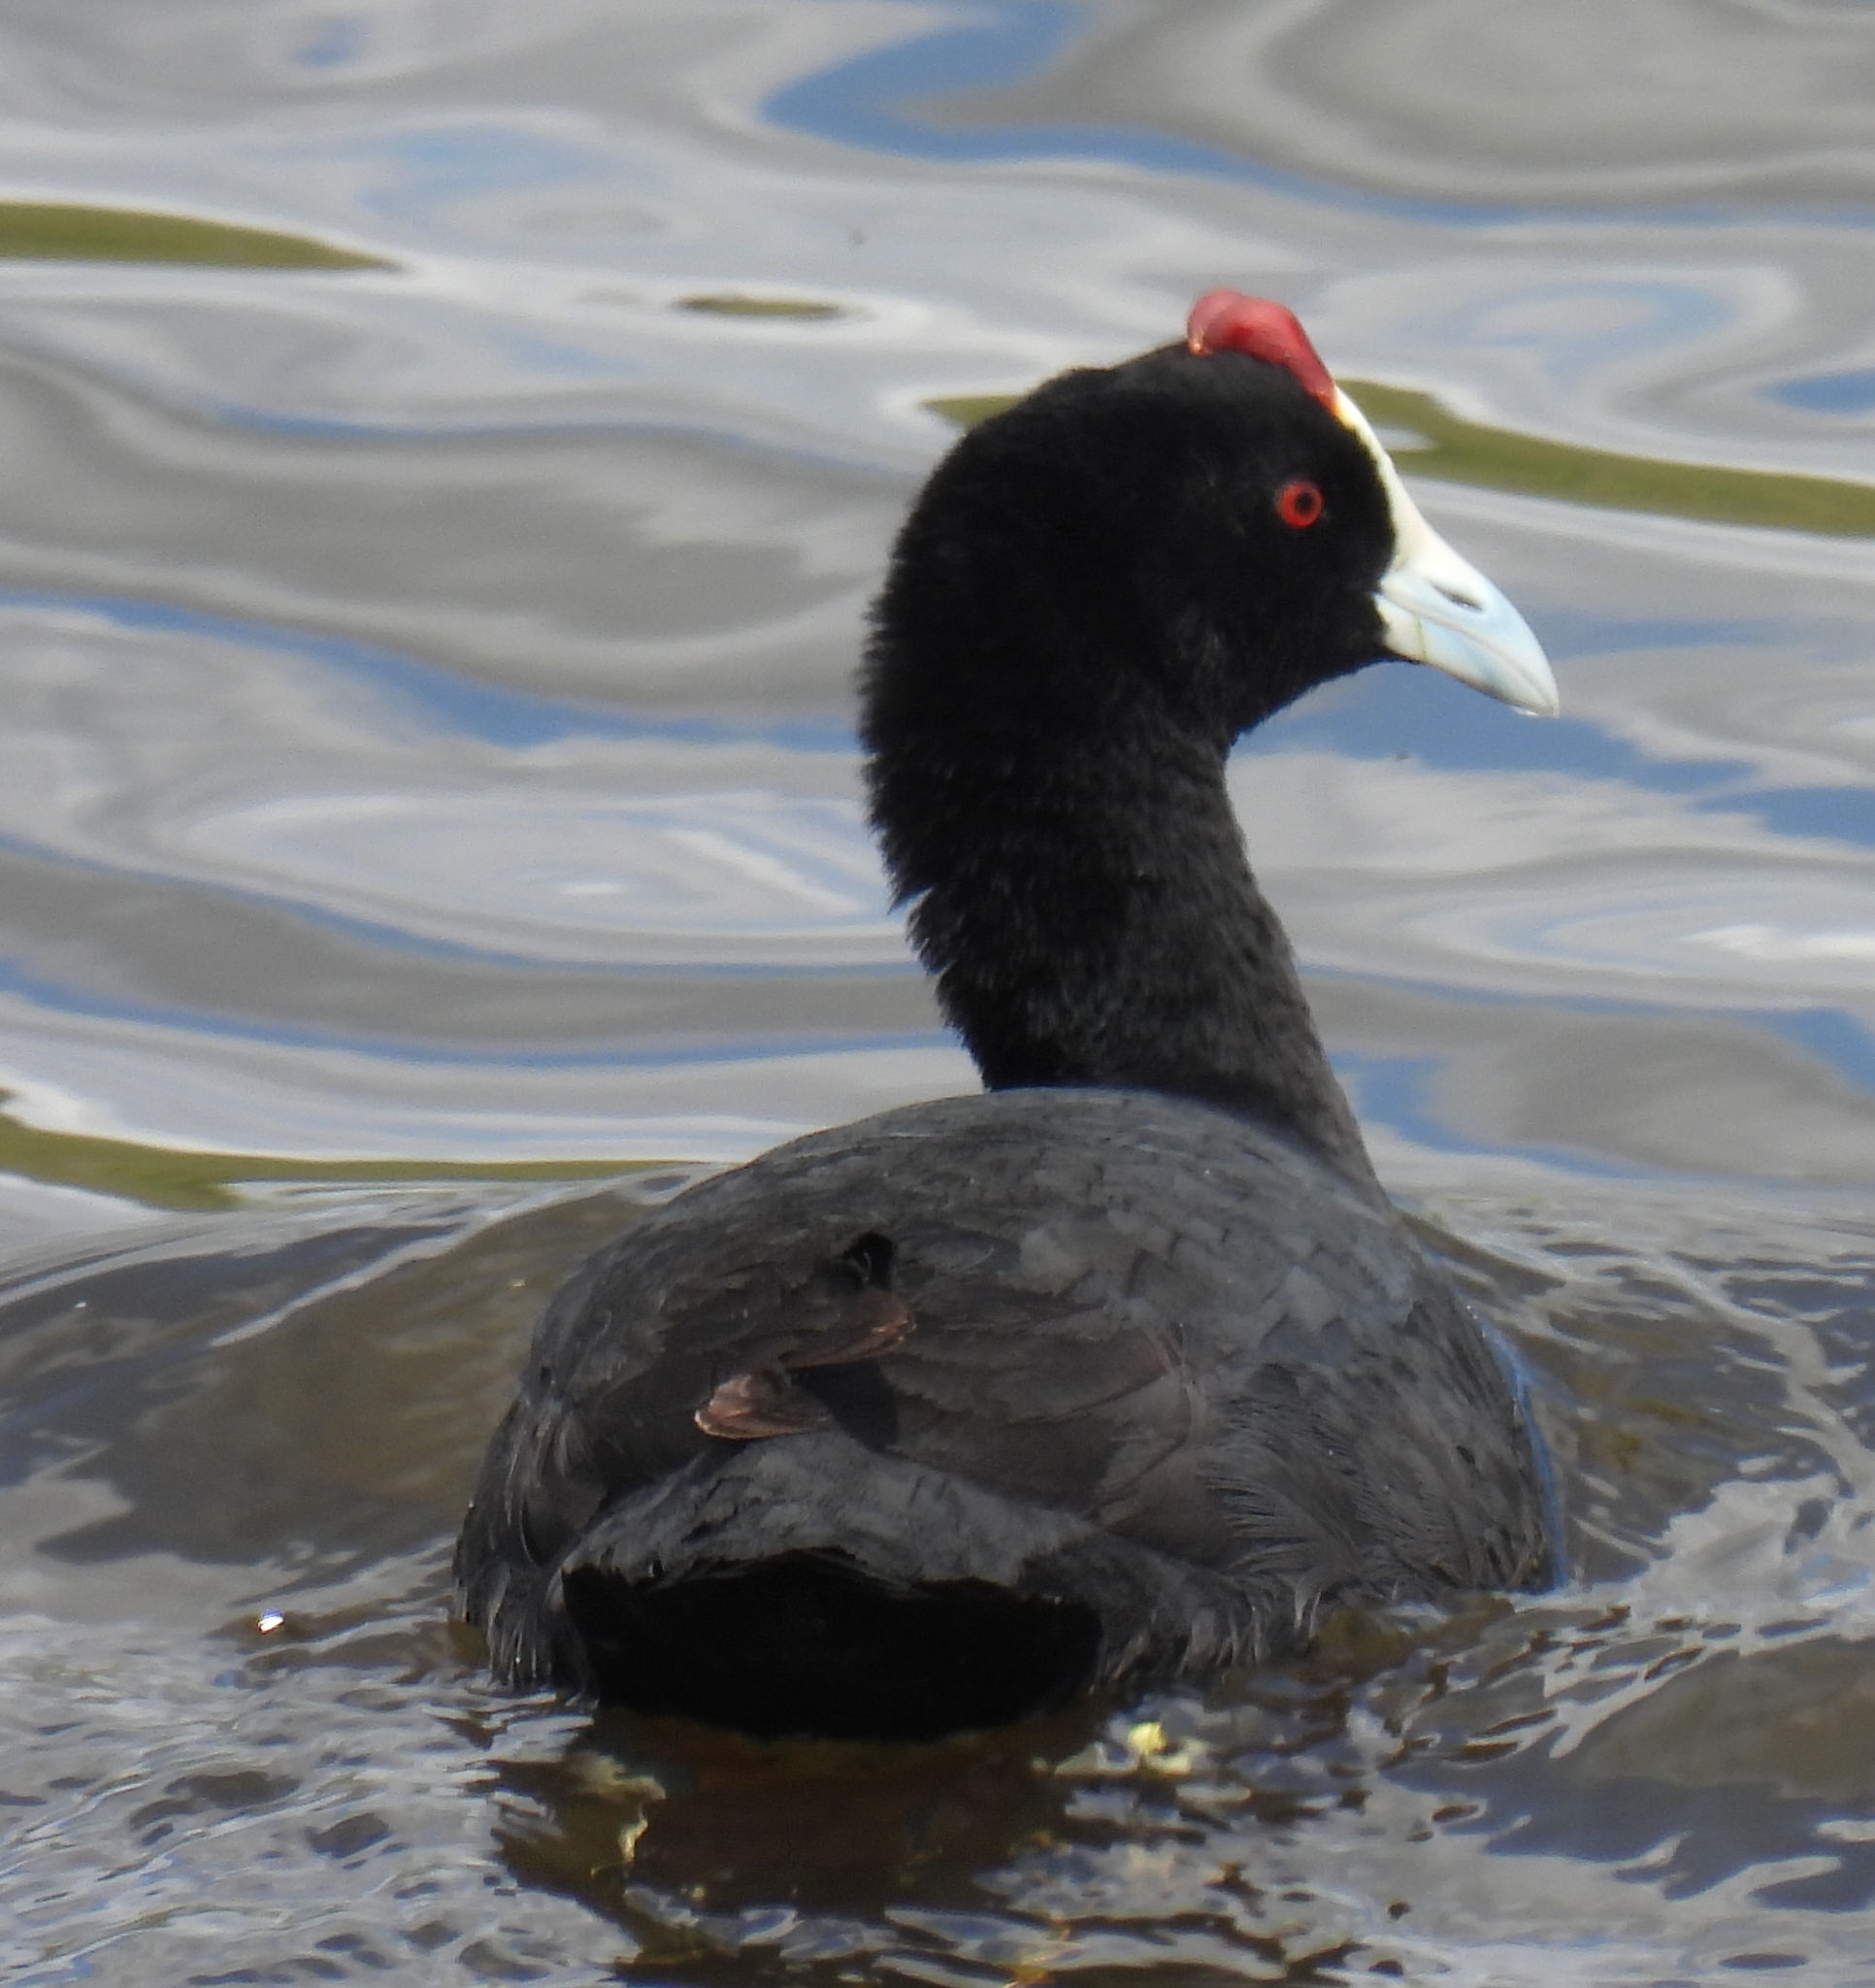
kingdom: Animalia
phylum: Chordata
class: Aves
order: Gruiformes
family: Rallidae
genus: Fulica
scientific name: Fulica cristata
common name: Red-knobbed coot
